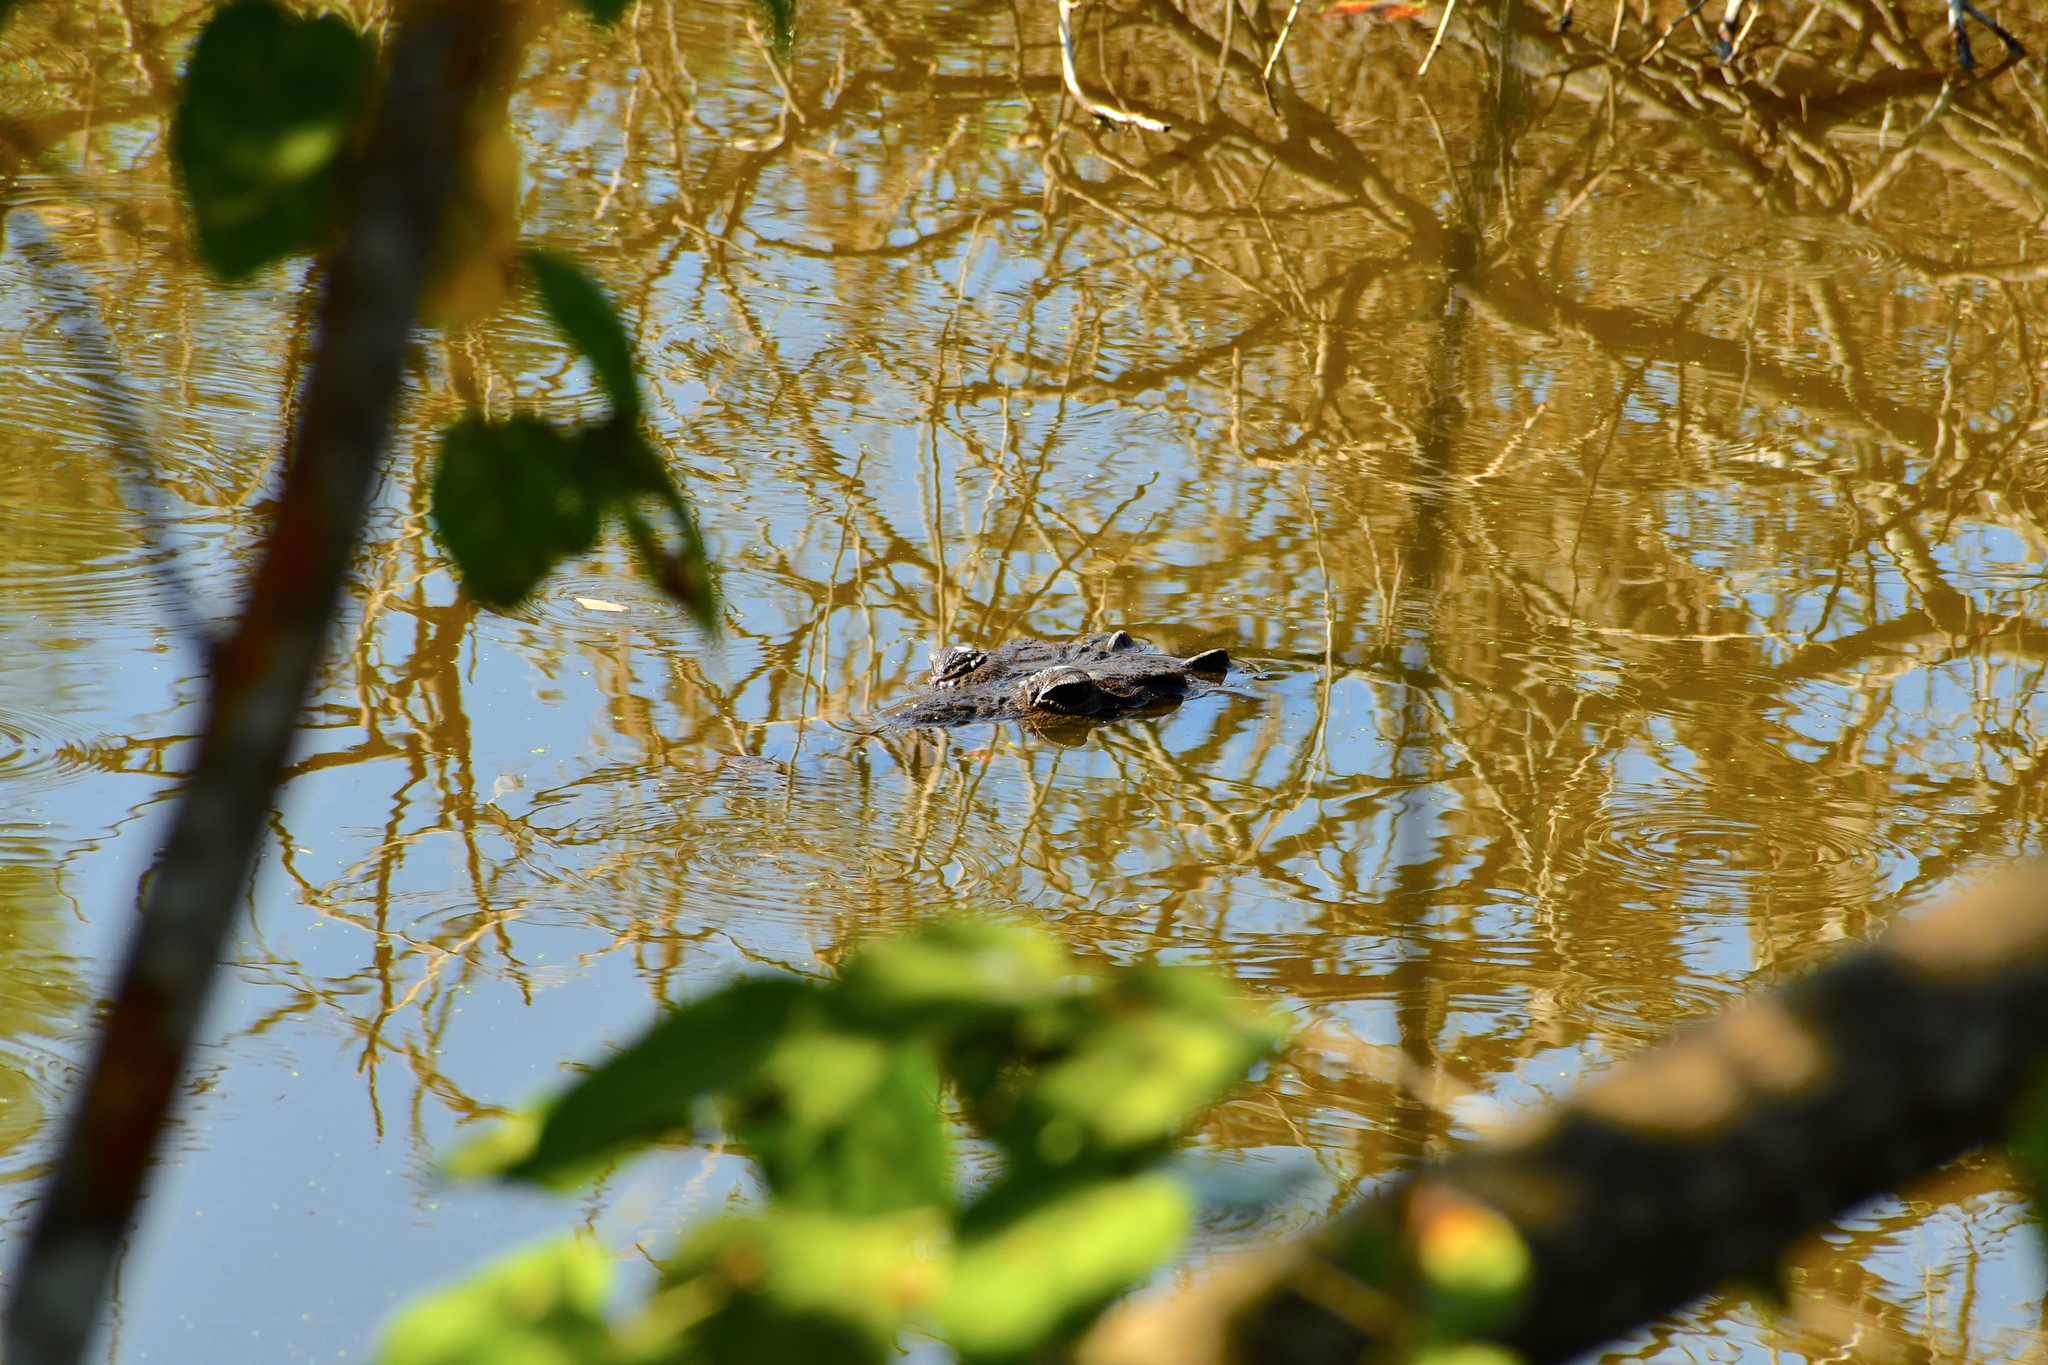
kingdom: Animalia
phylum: Chordata
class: Crocodylia
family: Crocodylidae
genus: Crocodylus
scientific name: Crocodylus acutus
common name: American crocodile
